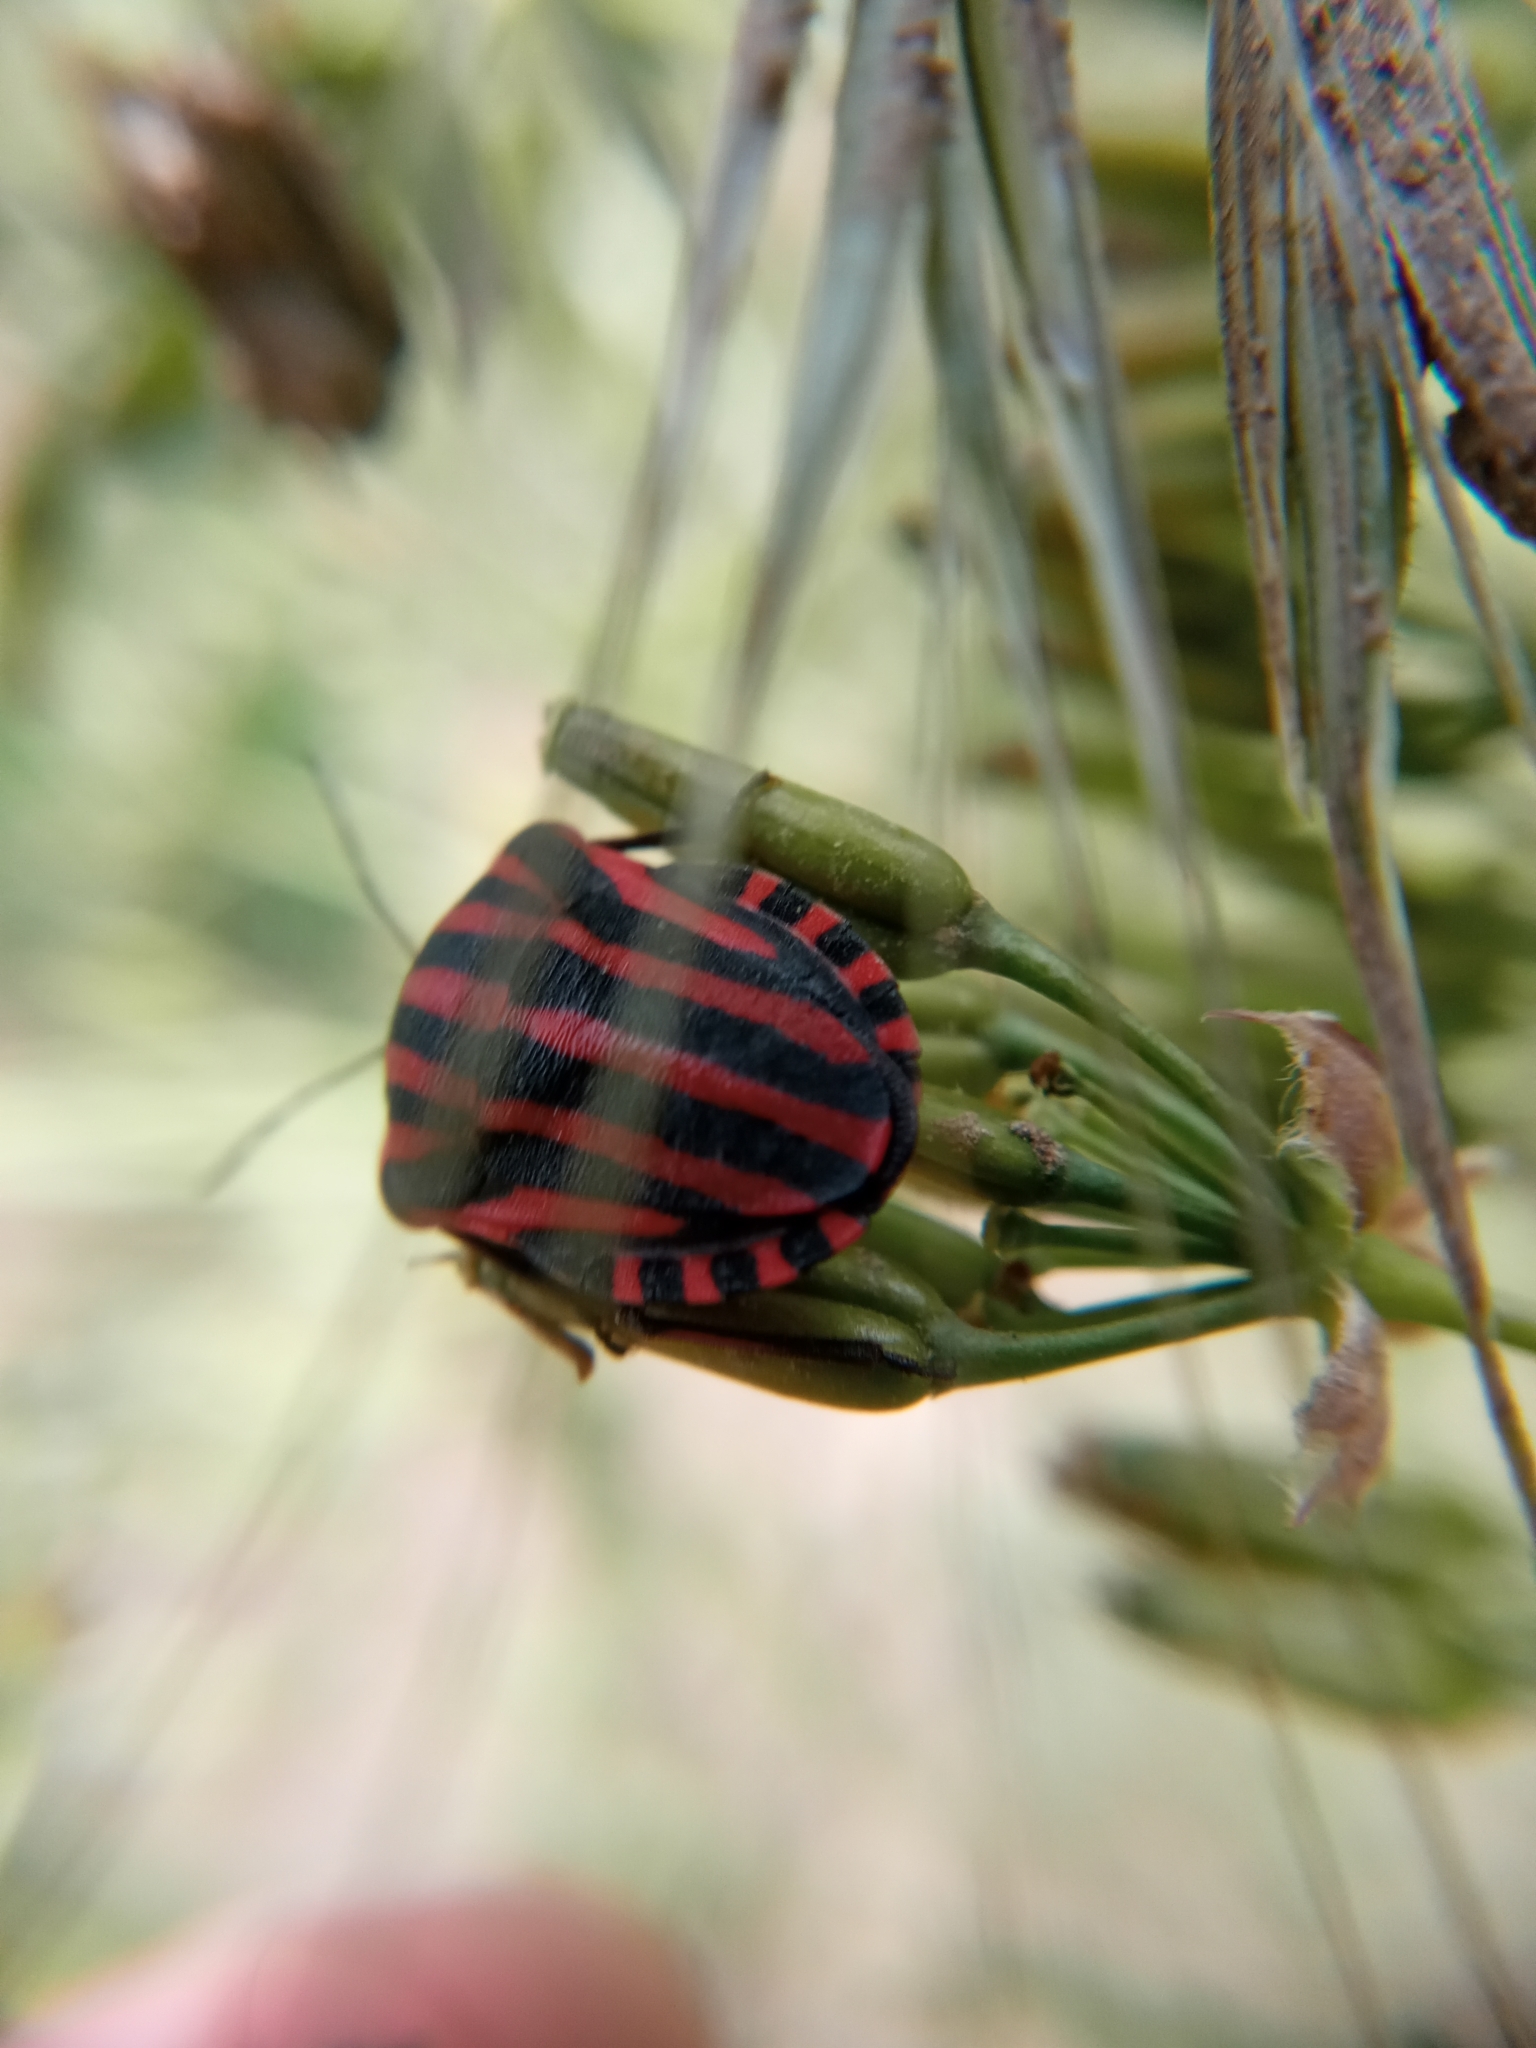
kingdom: Animalia
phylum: Arthropoda
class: Insecta
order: Hemiptera
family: Pentatomidae
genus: Graphosoma
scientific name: Graphosoma italicum
